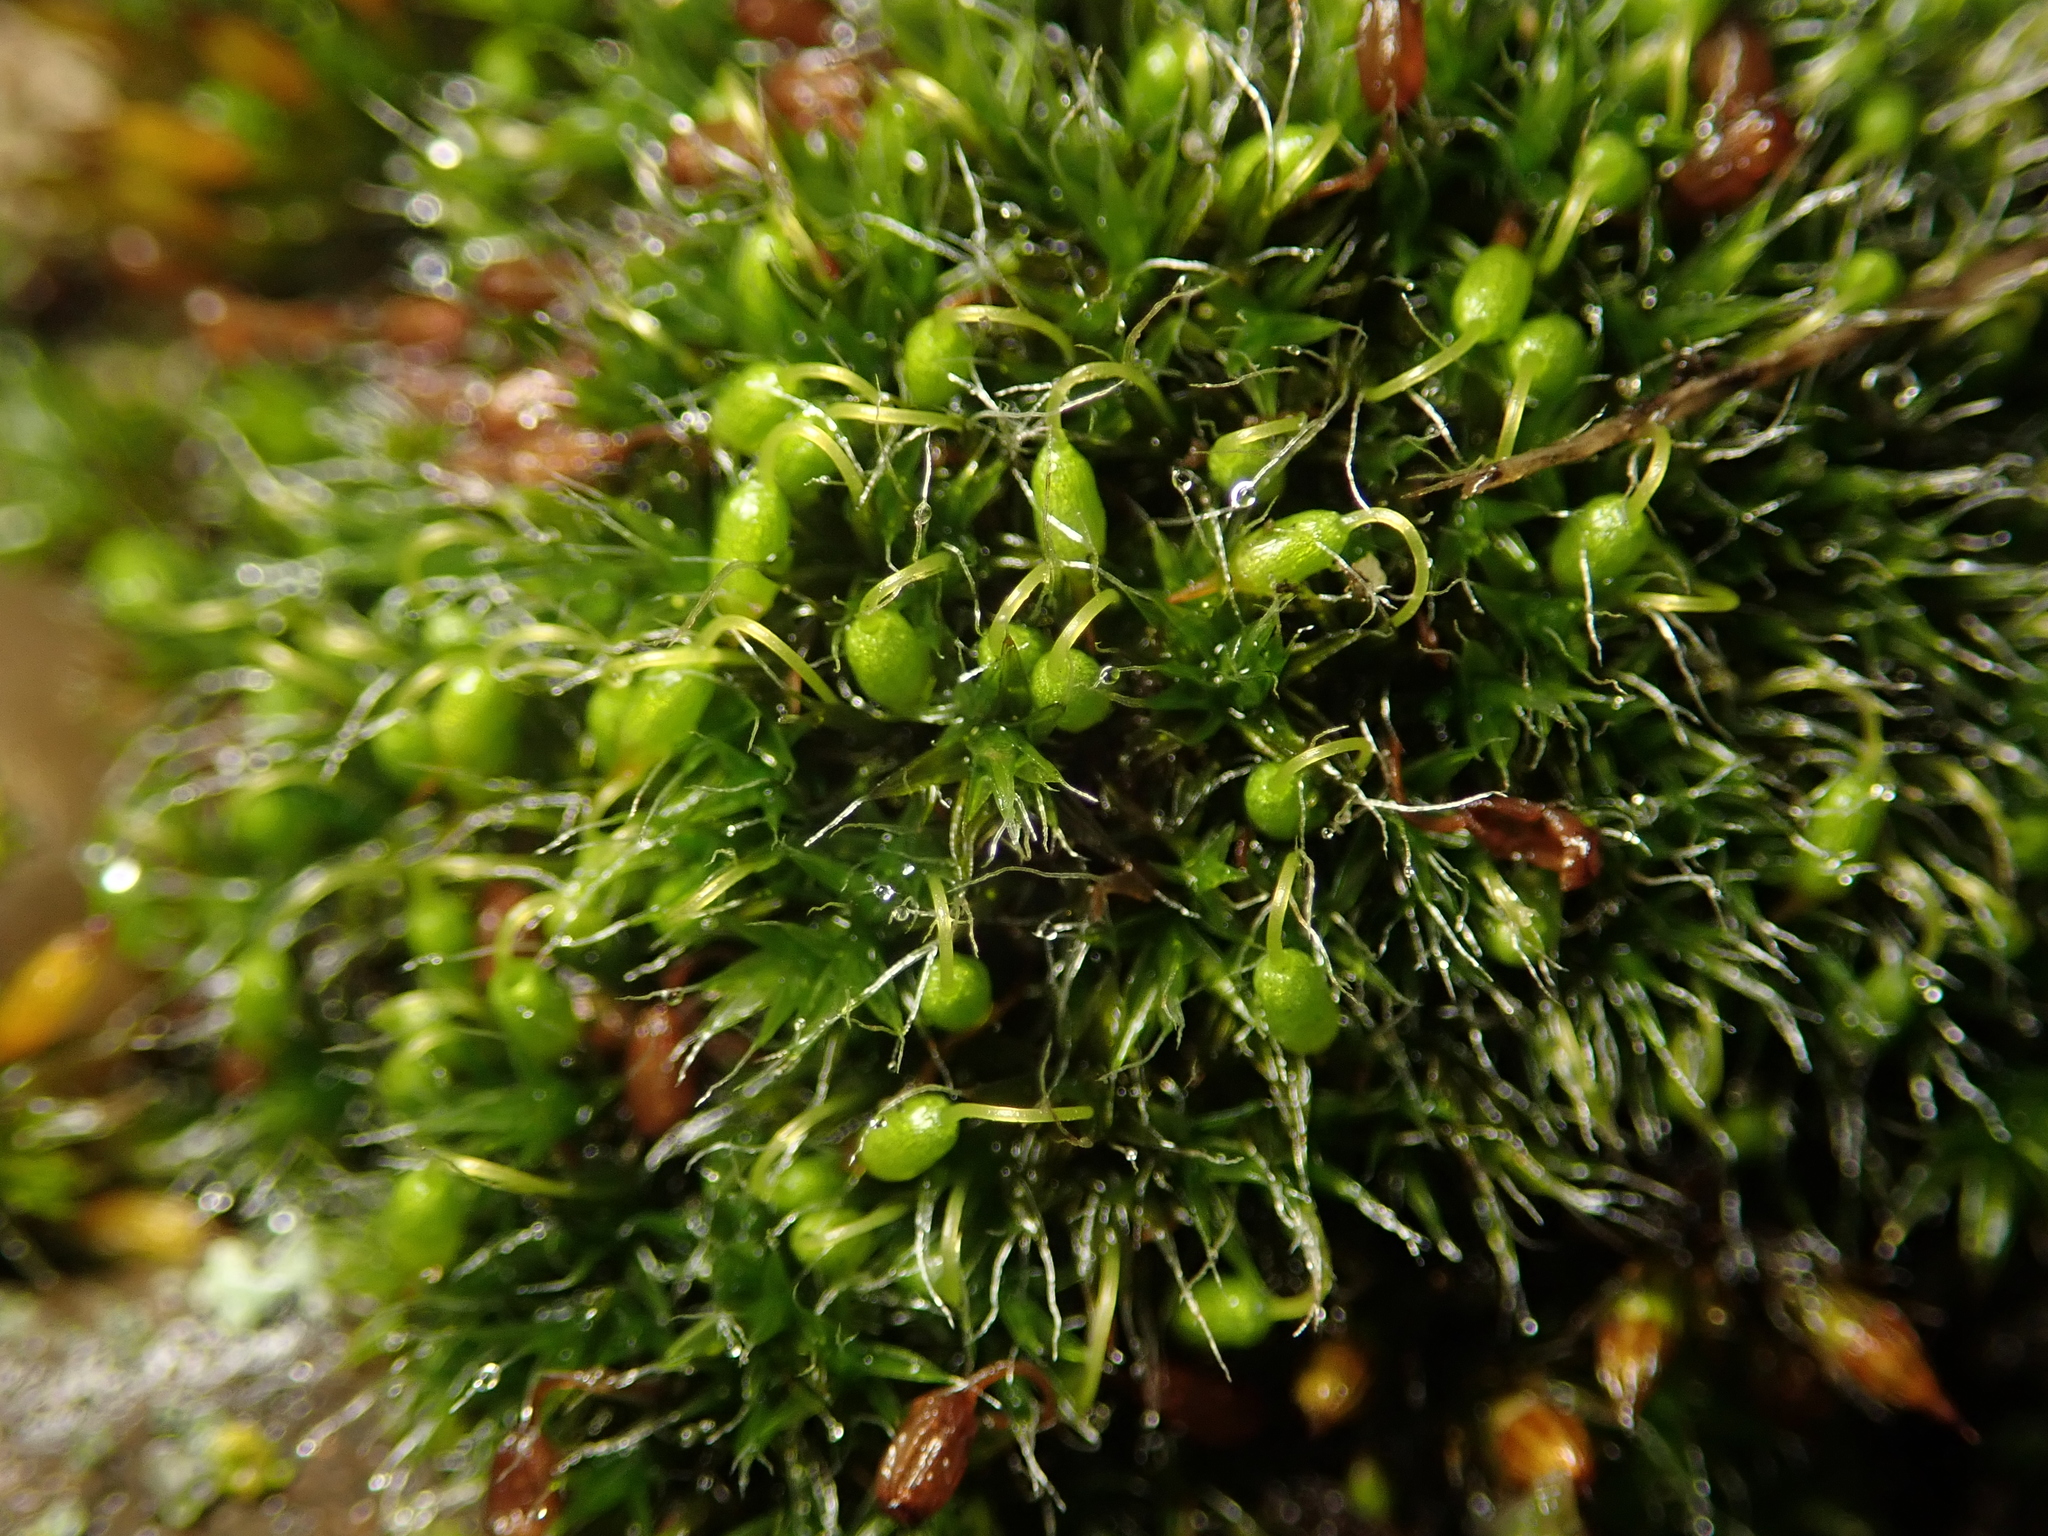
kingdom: Plantae
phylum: Bryophyta
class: Bryopsida
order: Grimmiales
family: Grimmiaceae
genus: Grimmia
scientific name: Grimmia pulvinata
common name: Grey-cushioned grimmia
